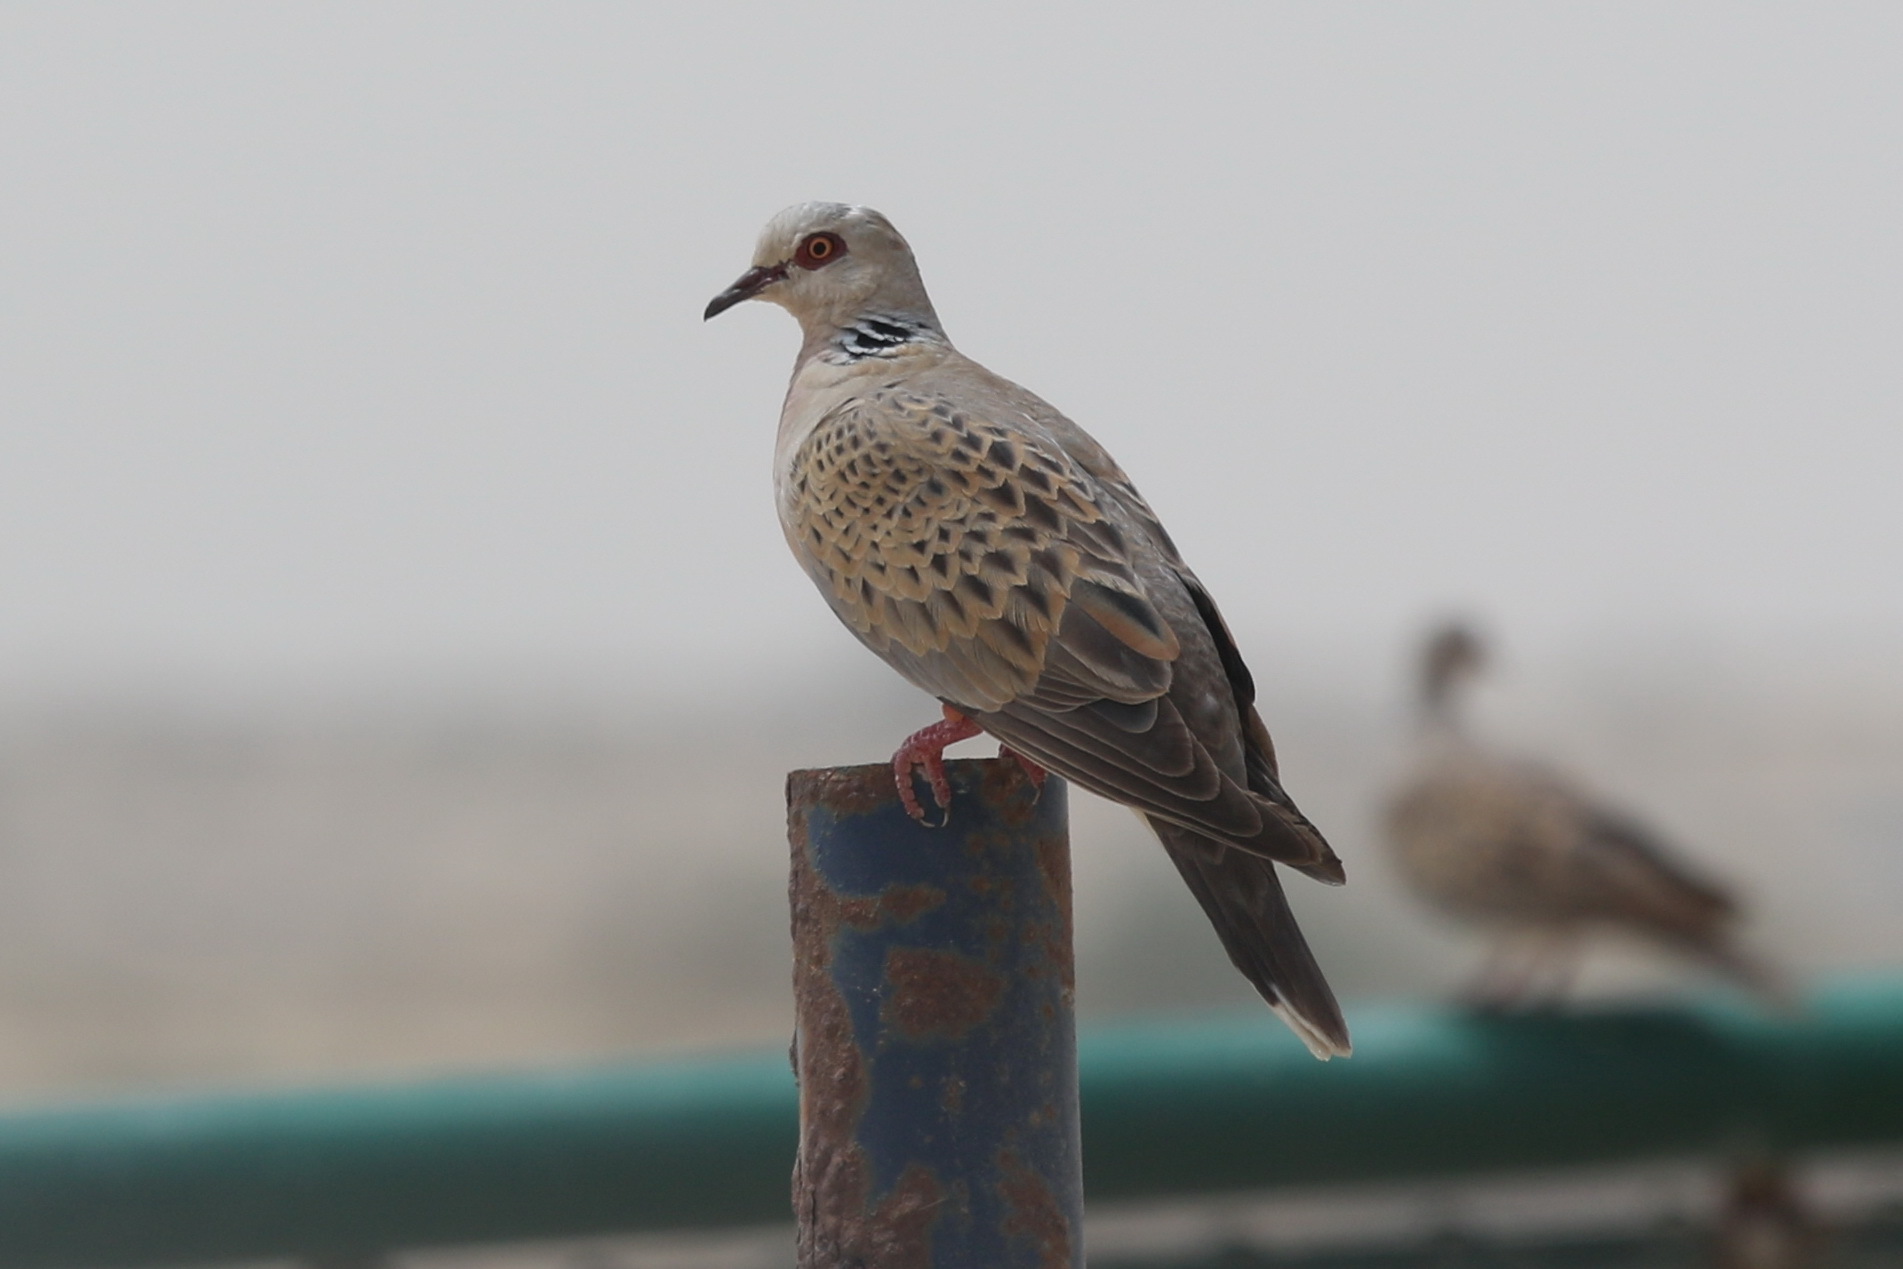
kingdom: Animalia
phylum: Chordata
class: Aves
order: Columbiformes
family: Columbidae
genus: Streptopelia
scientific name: Streptopelia turtur
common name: European turtle dove
